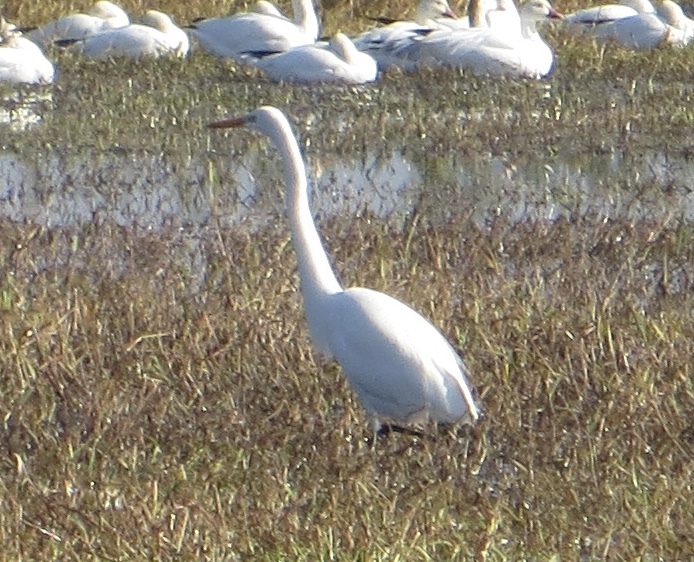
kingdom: Animalia
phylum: Chordata
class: Aves
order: Pelecaniformes
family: Ardeidae
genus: Ardea
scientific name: Ardea alba
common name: Great egret
